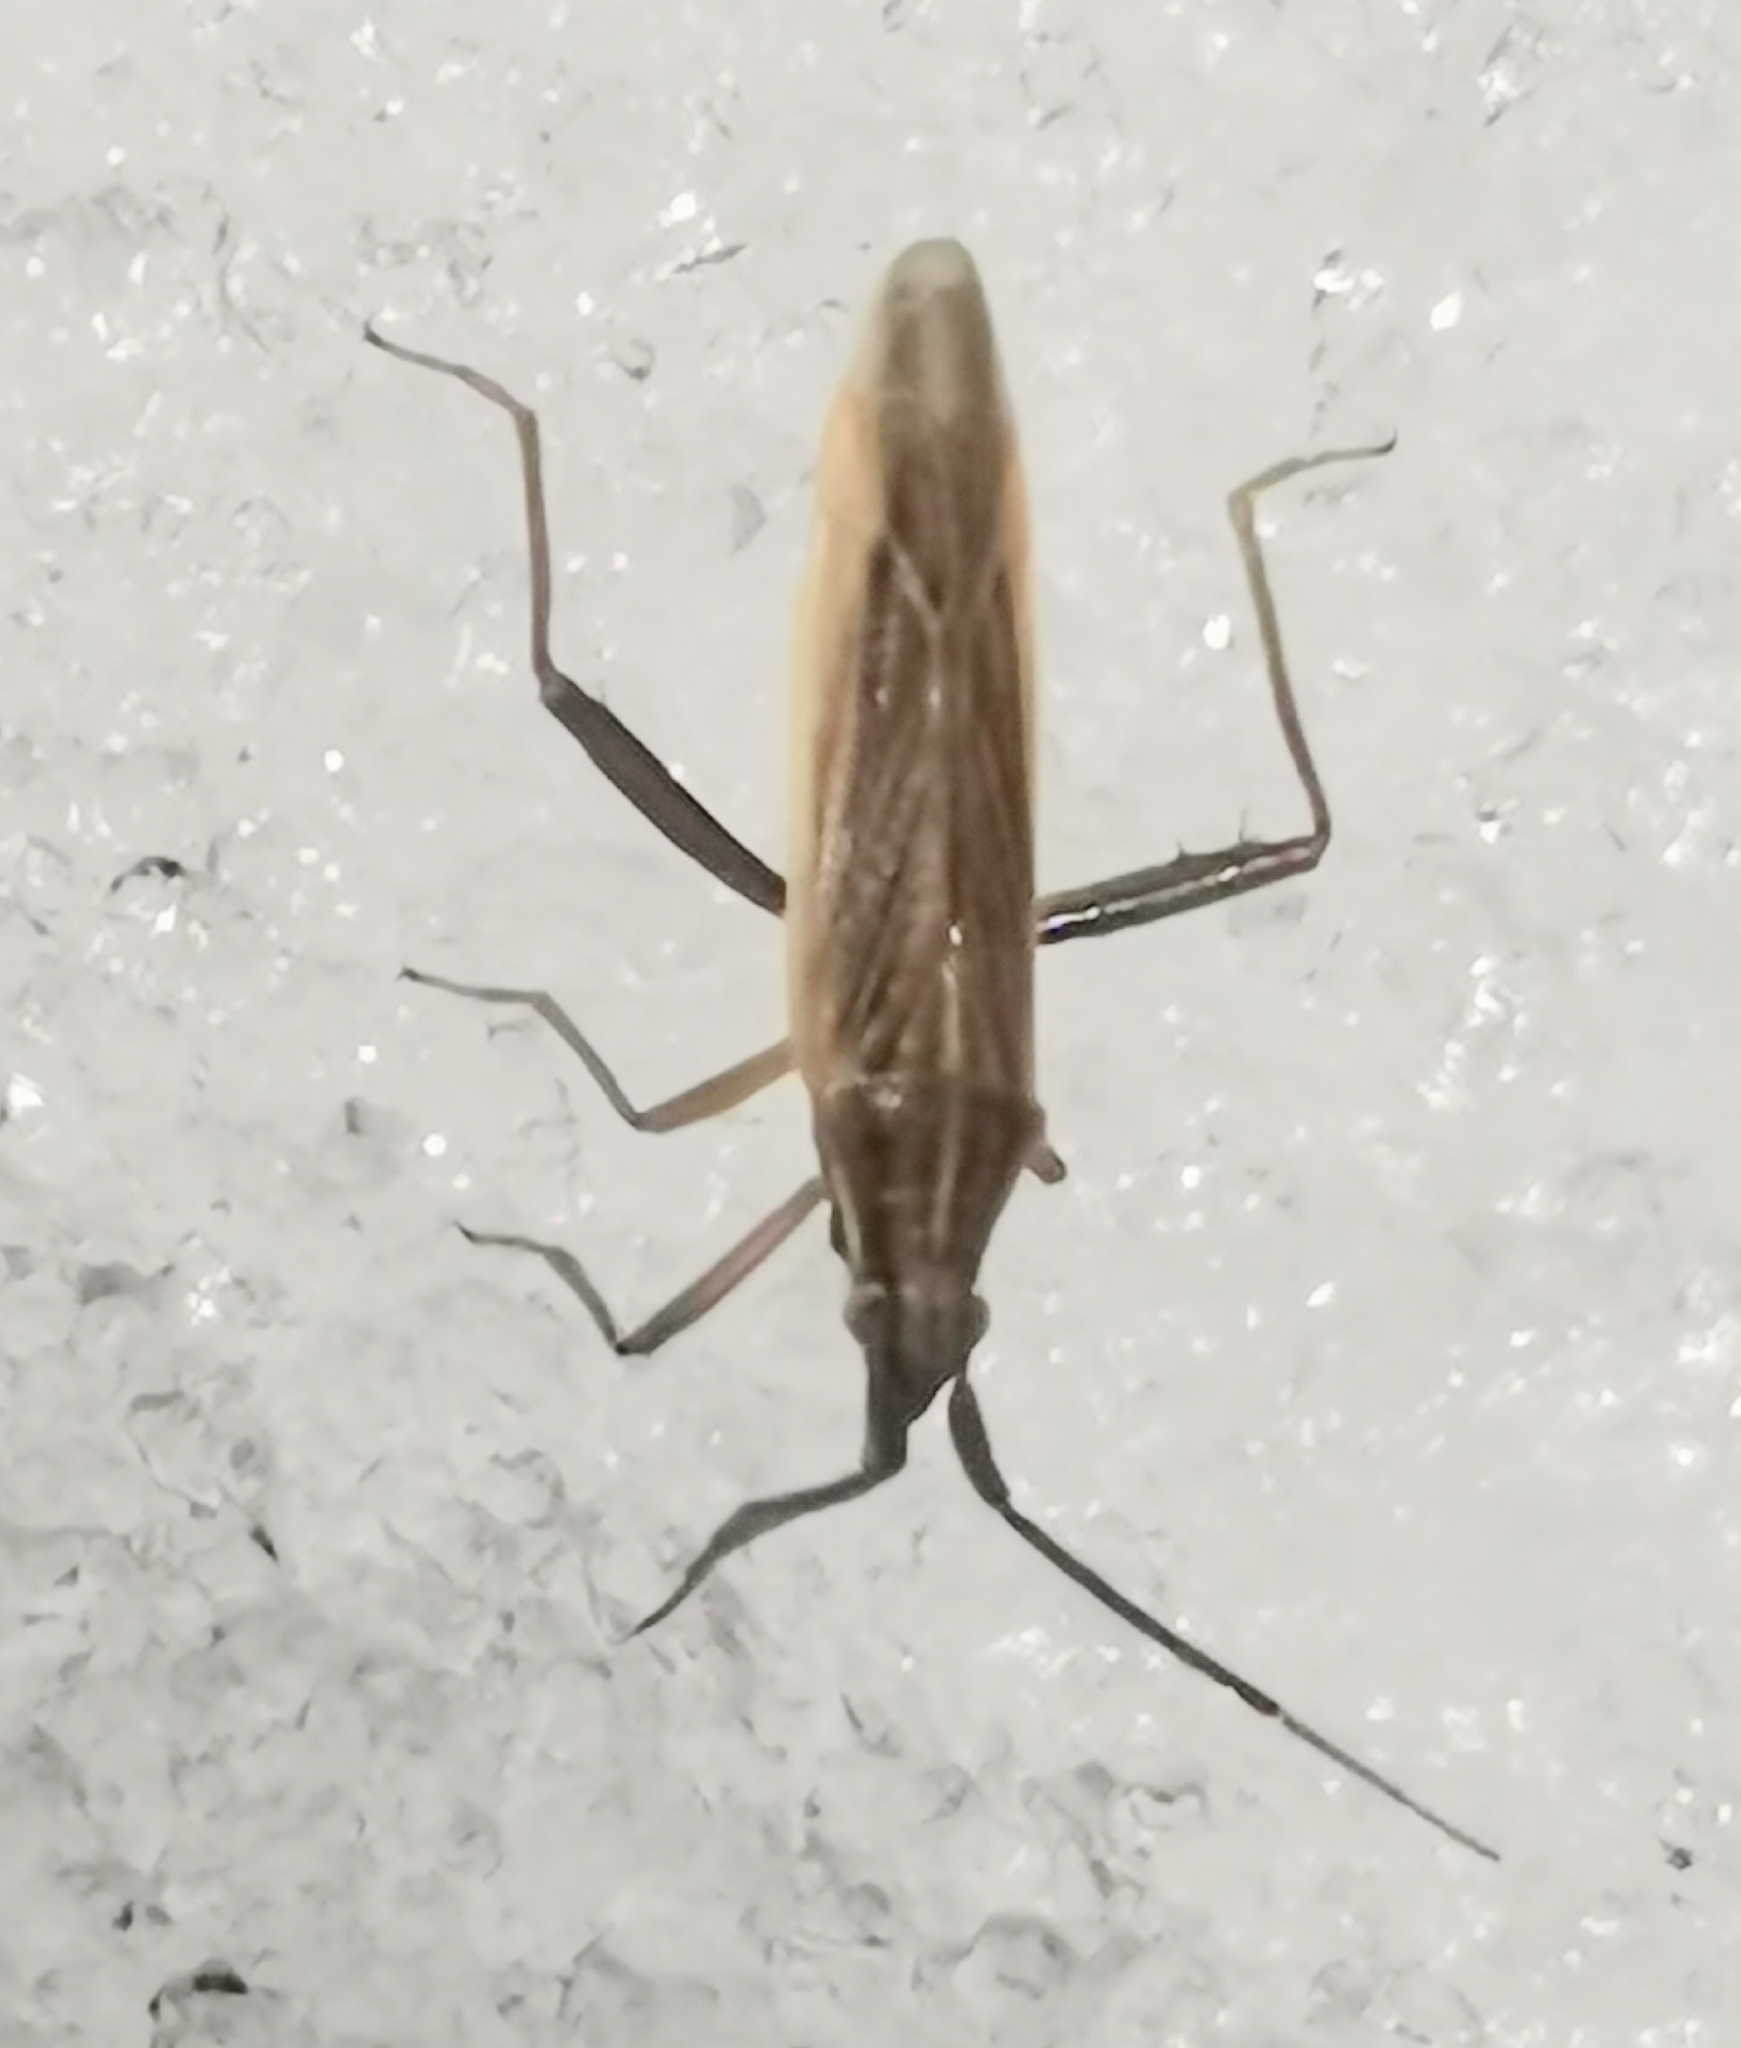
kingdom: Animalia
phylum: Arthropoda
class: Insecta
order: Hemiptera
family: Miridae
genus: Stenodema
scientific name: Stenodema calcarata
